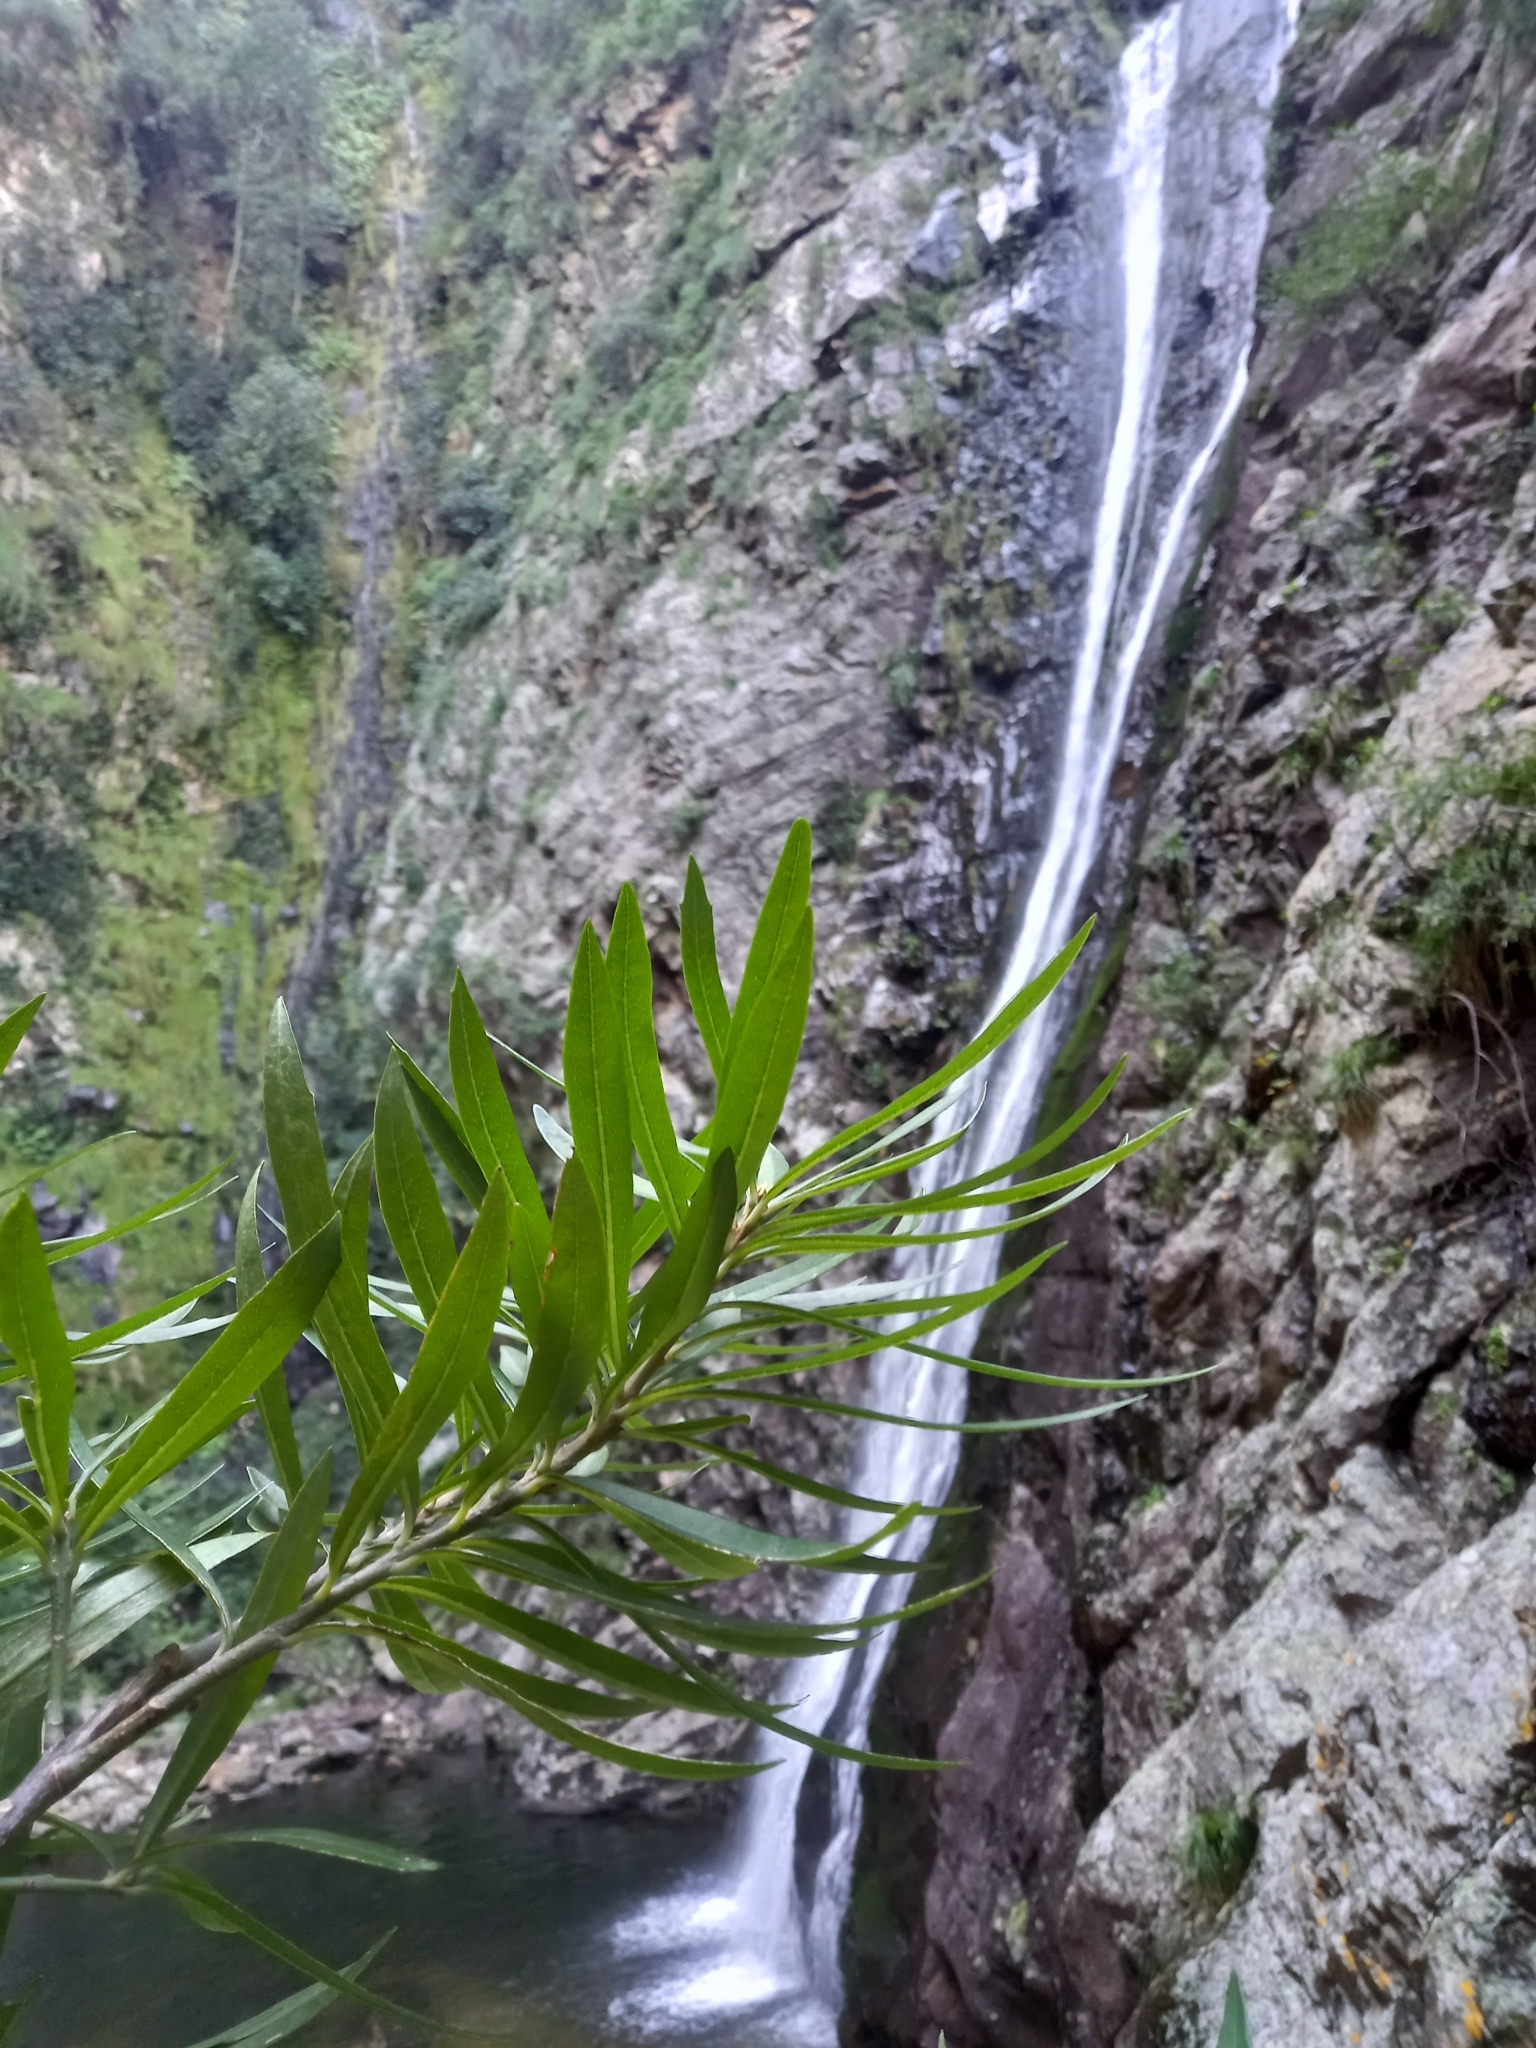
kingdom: Plantae
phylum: Tracheophyta
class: Magnoliopsida
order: Asterales
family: Asteraceae
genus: Brachylaena
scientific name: Brachylaena neriifolia
